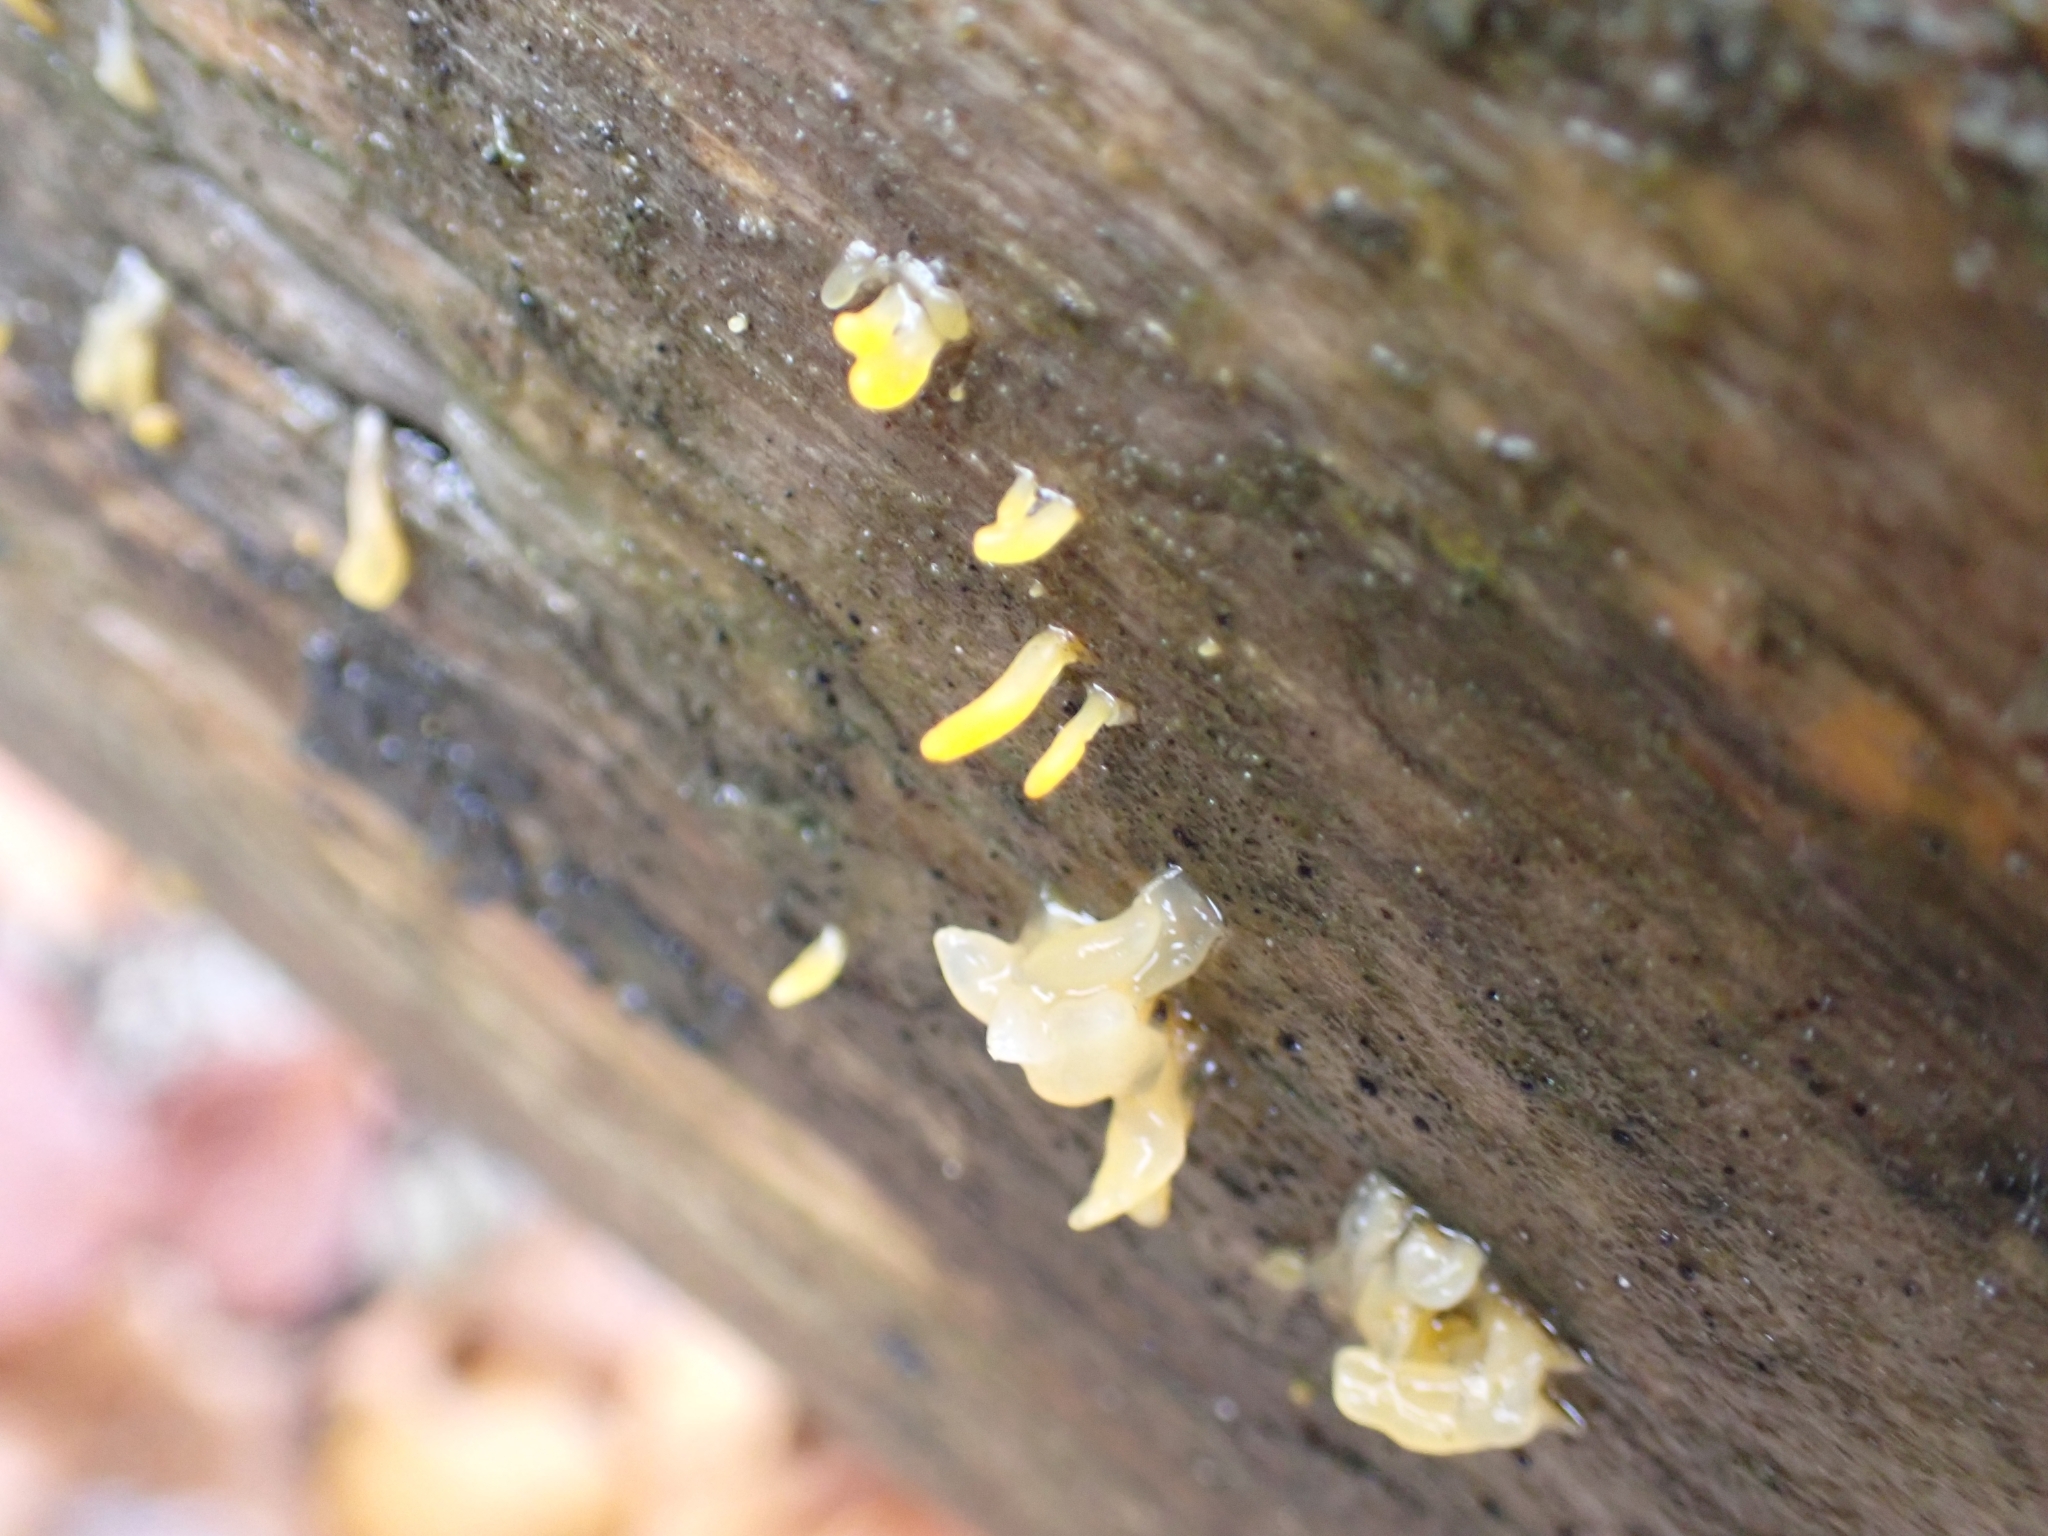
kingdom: Fungi
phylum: Basidiomycota
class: Dacrymycetes
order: Dacrymycetales
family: Dacrymycetaceae
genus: Calocera
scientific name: Calocera cornea
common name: Small stagshorn
